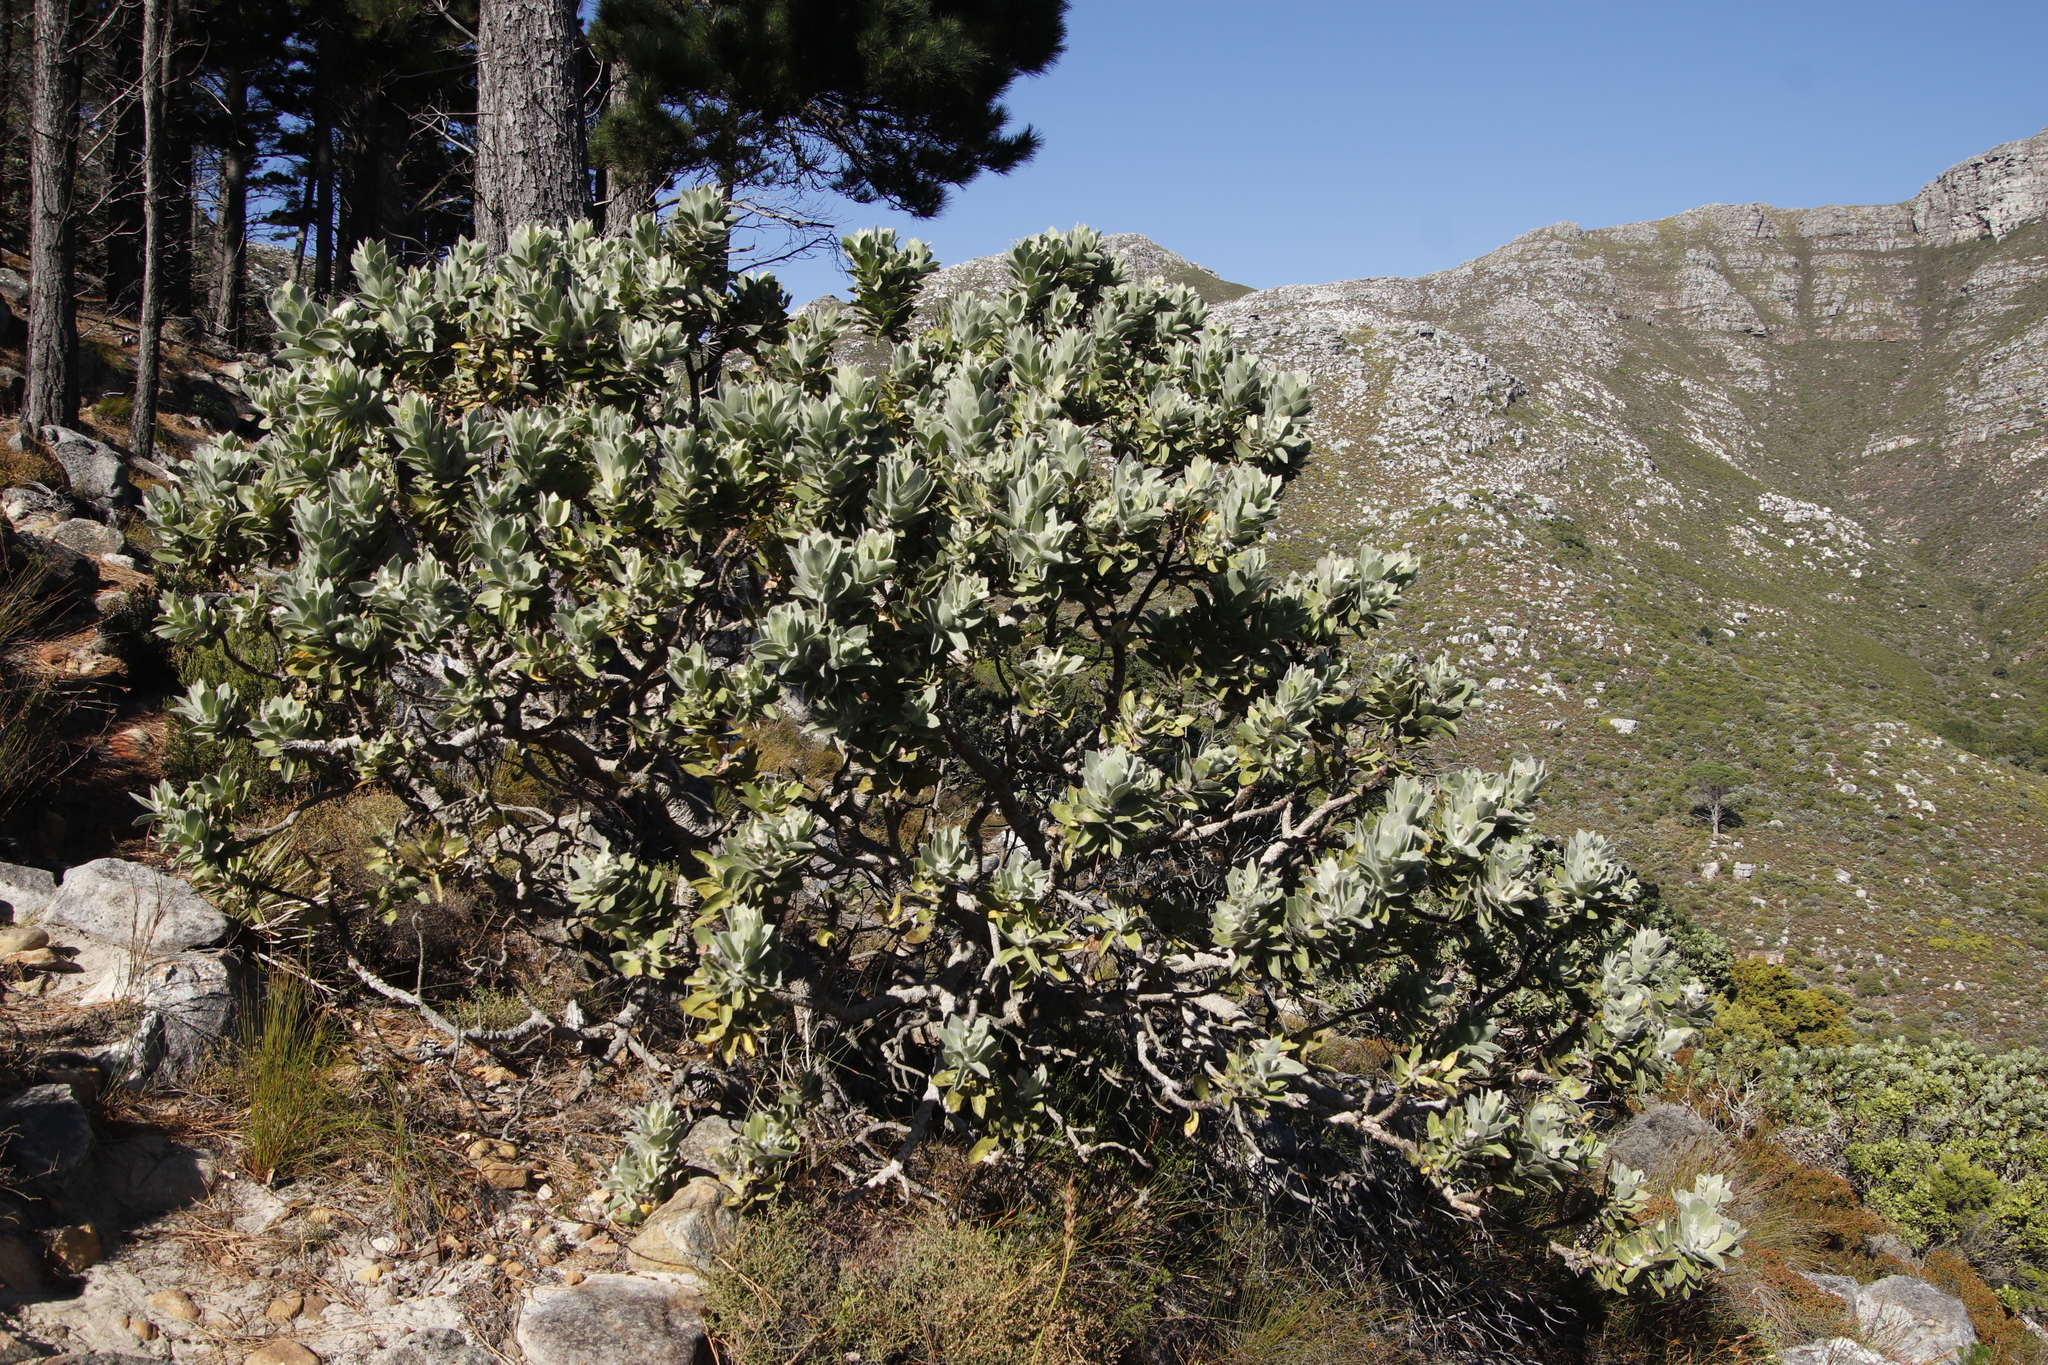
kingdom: Plantae
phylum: Tracheophyta
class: Magnoliopsida
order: Proteales
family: Proteaceae
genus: Leucospermum
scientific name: Leucospermum conocarpodendron
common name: Tree pincushion
